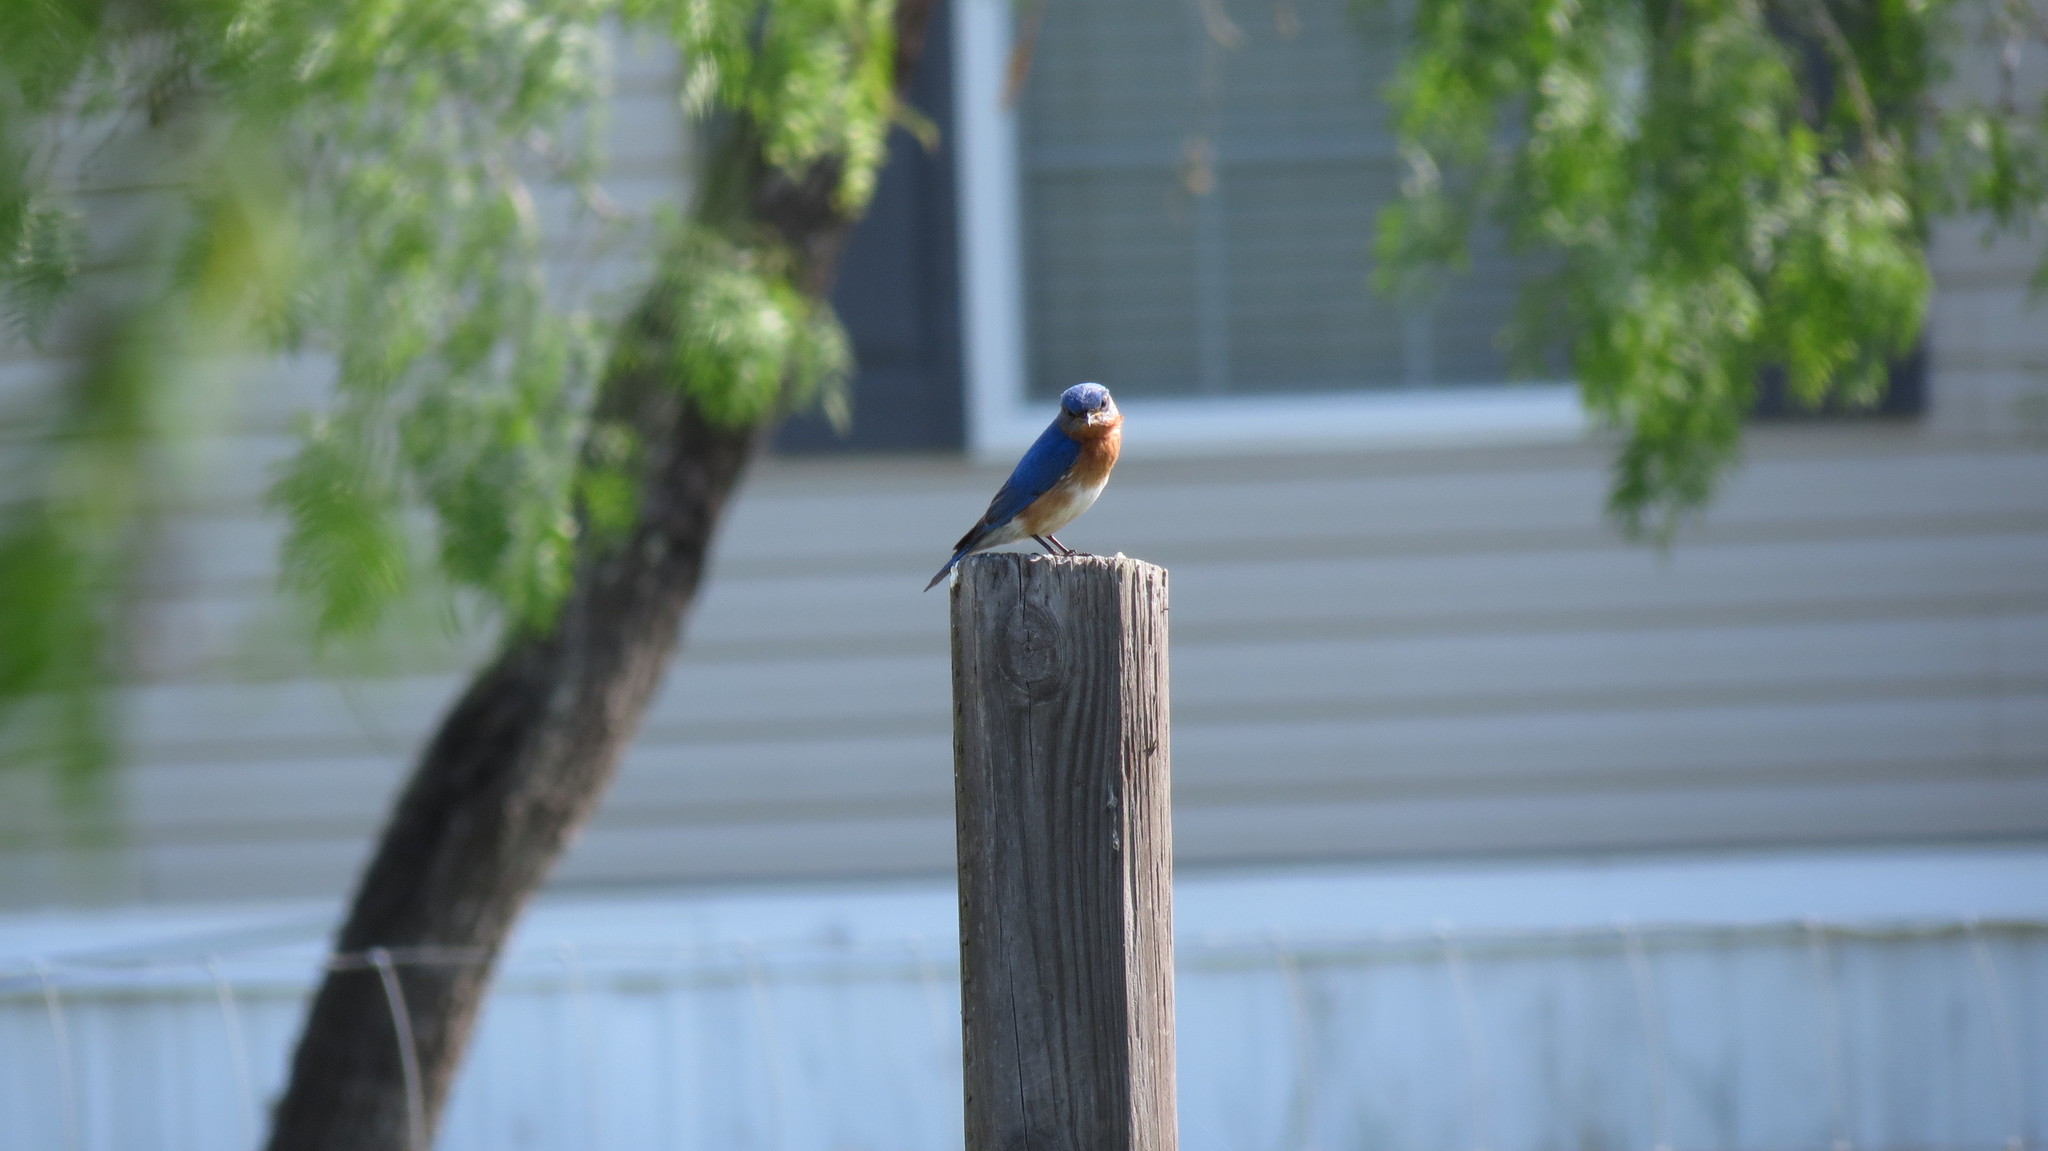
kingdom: Animalia
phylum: Chordata
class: Aves
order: Passeriformes
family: Turdidae
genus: Sialia
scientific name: Sialia sialis
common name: Eastern bluebird
